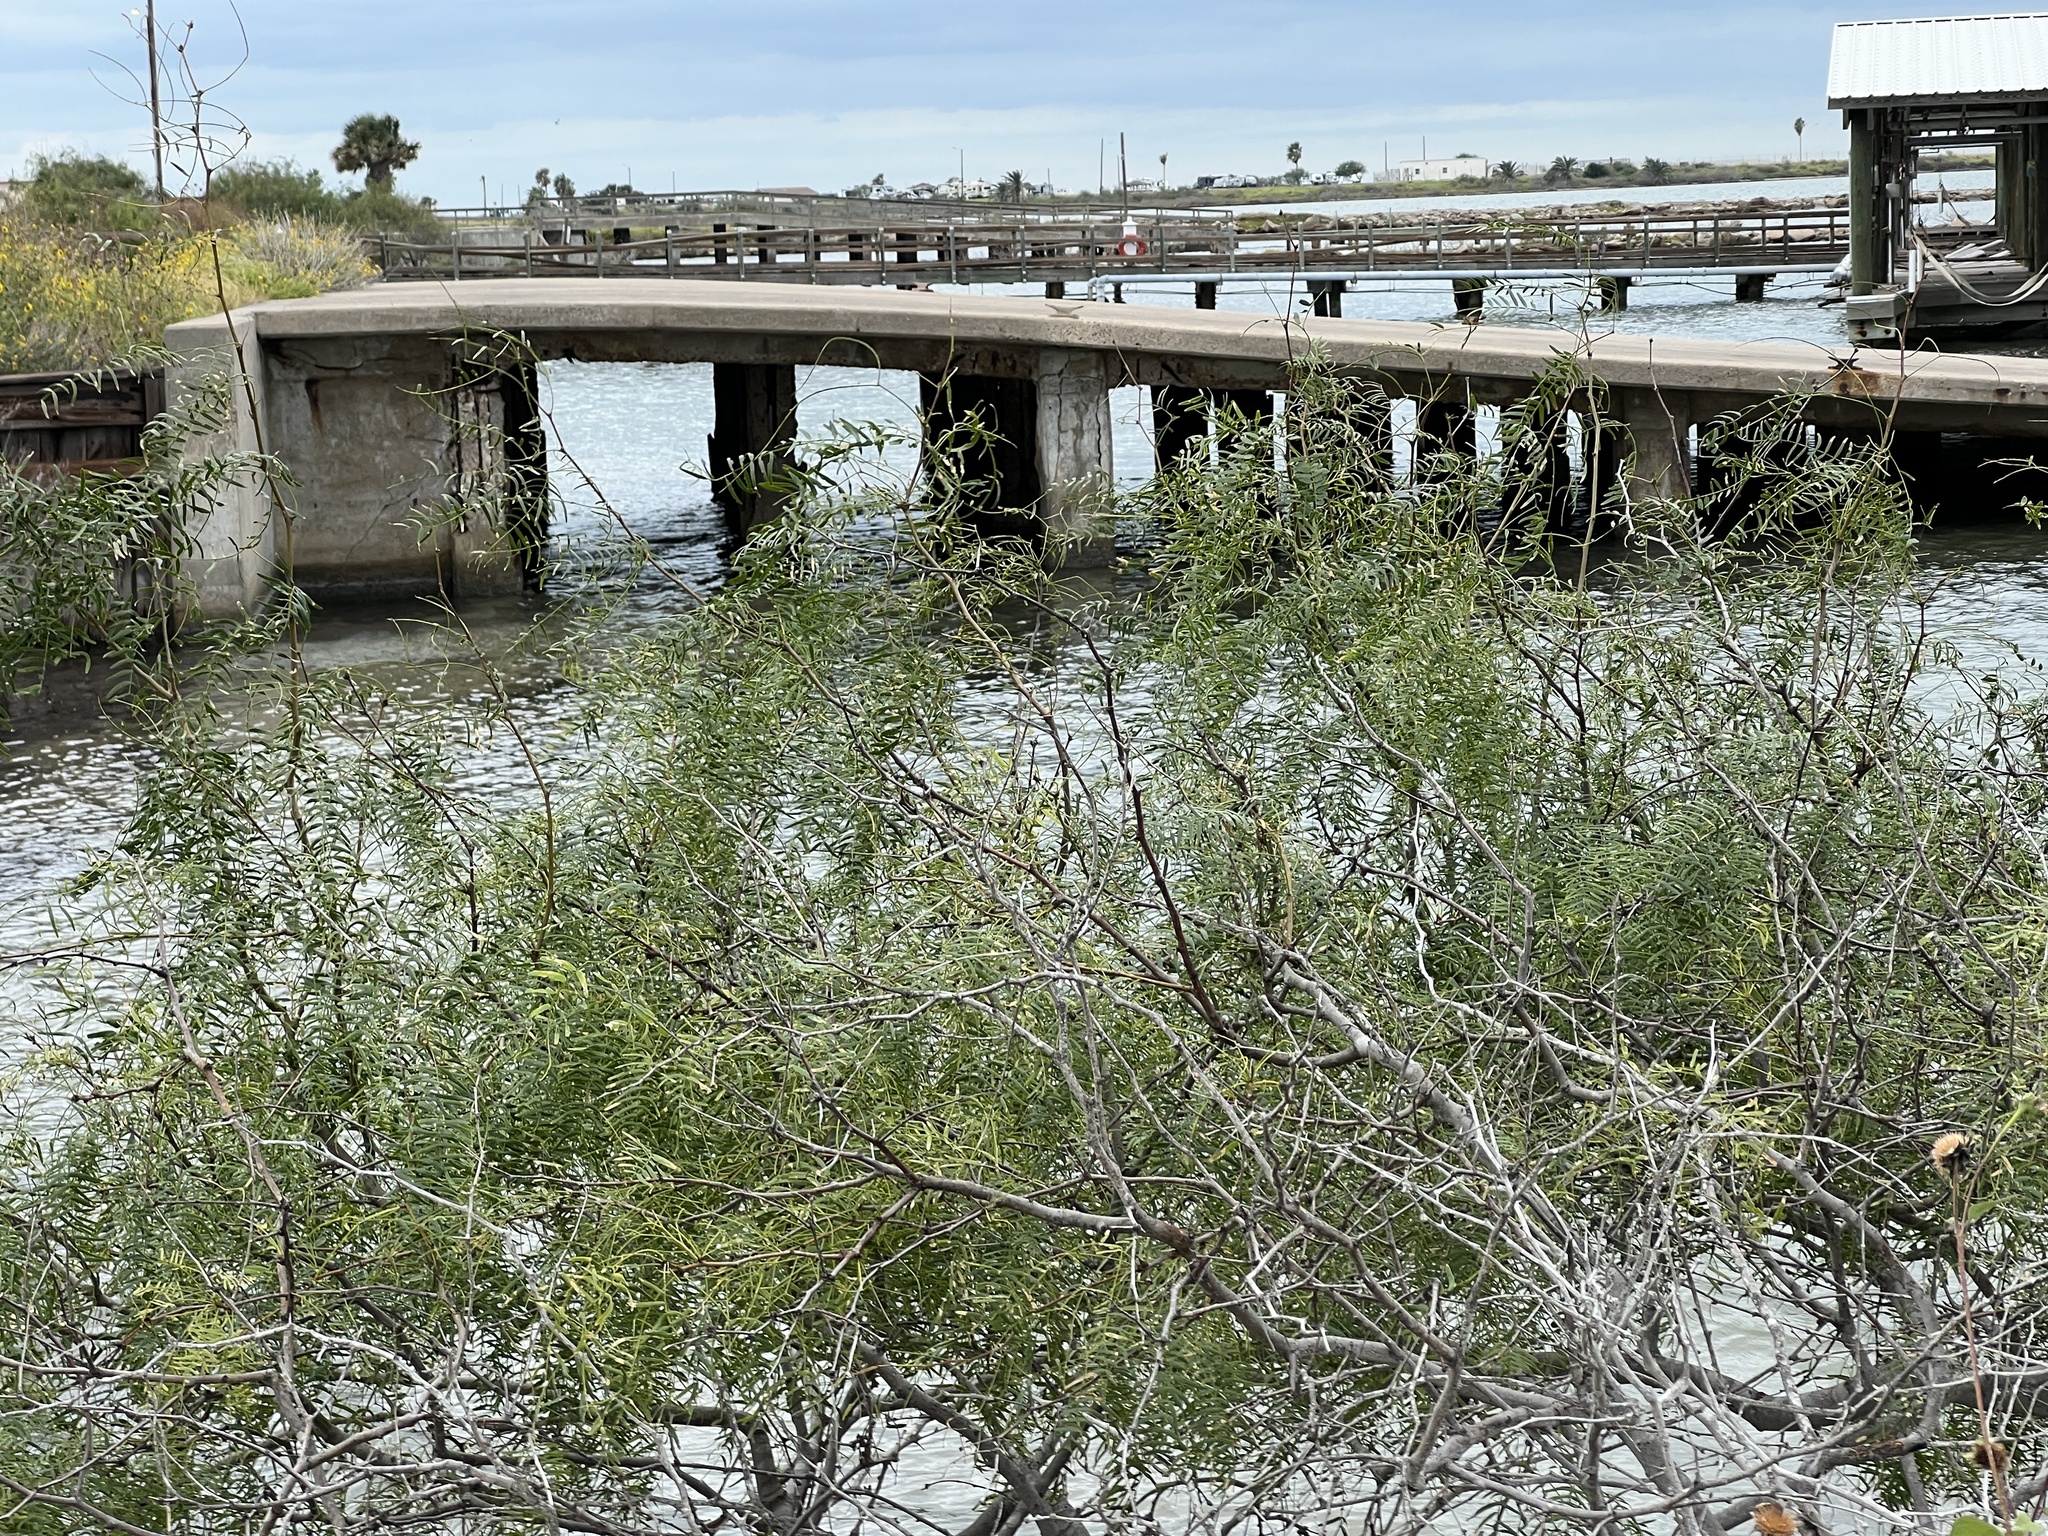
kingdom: Plantae
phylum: Tracheophyta
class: Magnoliopsida
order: Fabales
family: Fabaceae
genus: Prosopis
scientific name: Prosopis glandulosa
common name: Honey mesquite
